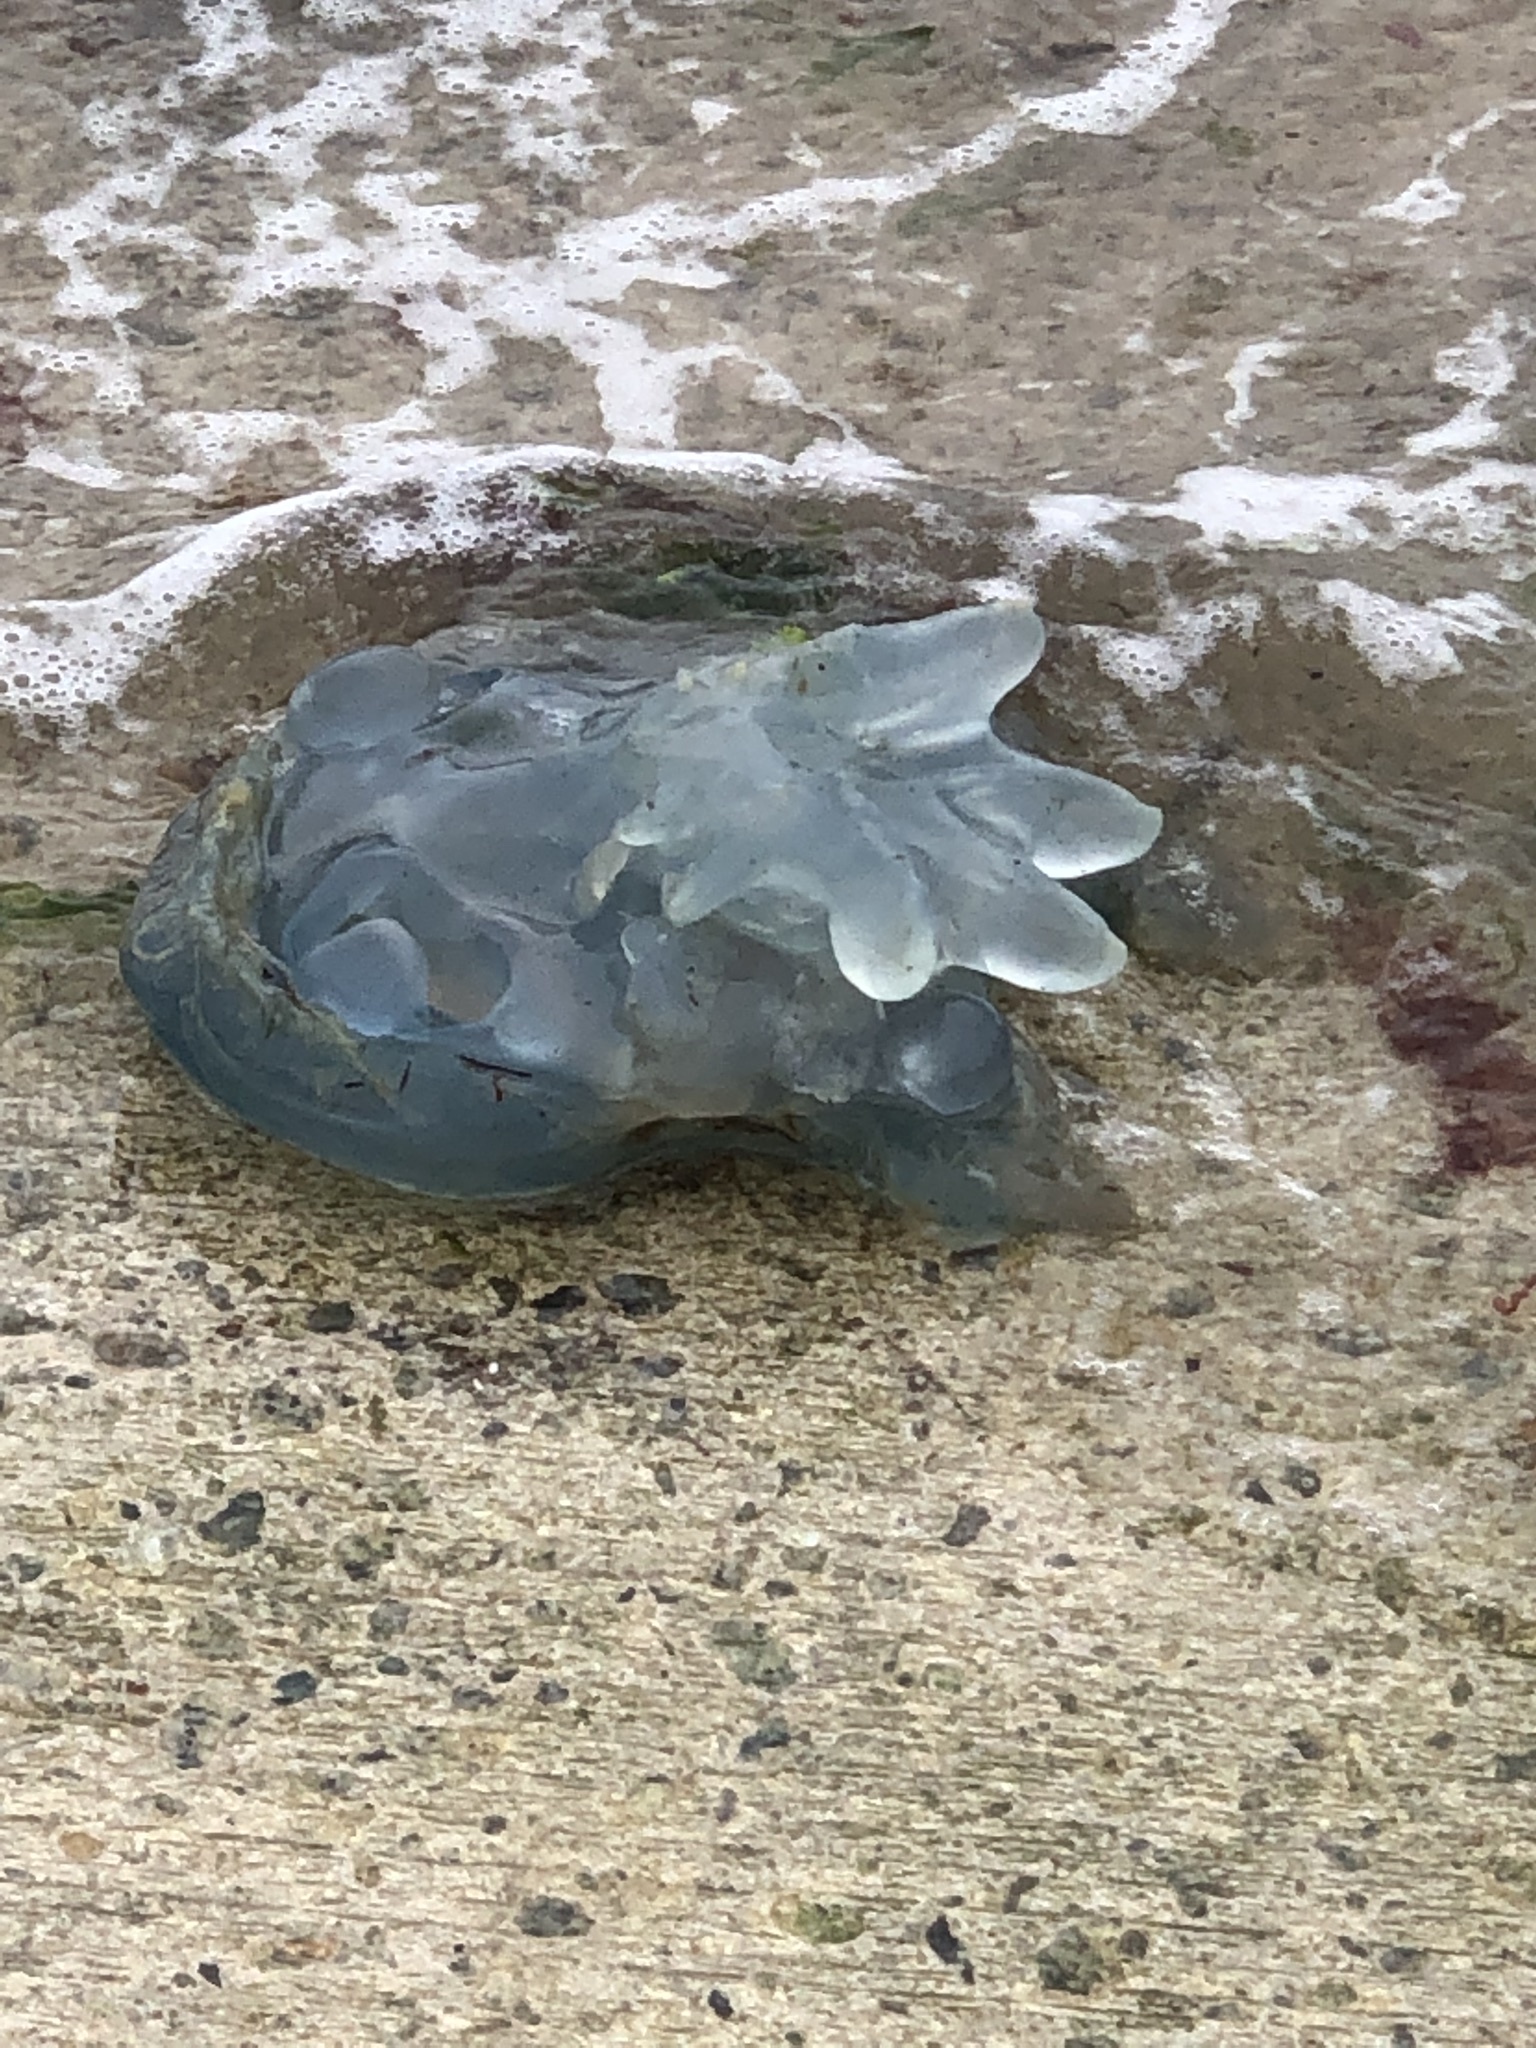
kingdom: Animalia
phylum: Cnidaria
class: Scyphozoa
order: Rhizostomeae
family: Rhizostomatidae
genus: Rhizostoma
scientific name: Rhizostoma octopus
